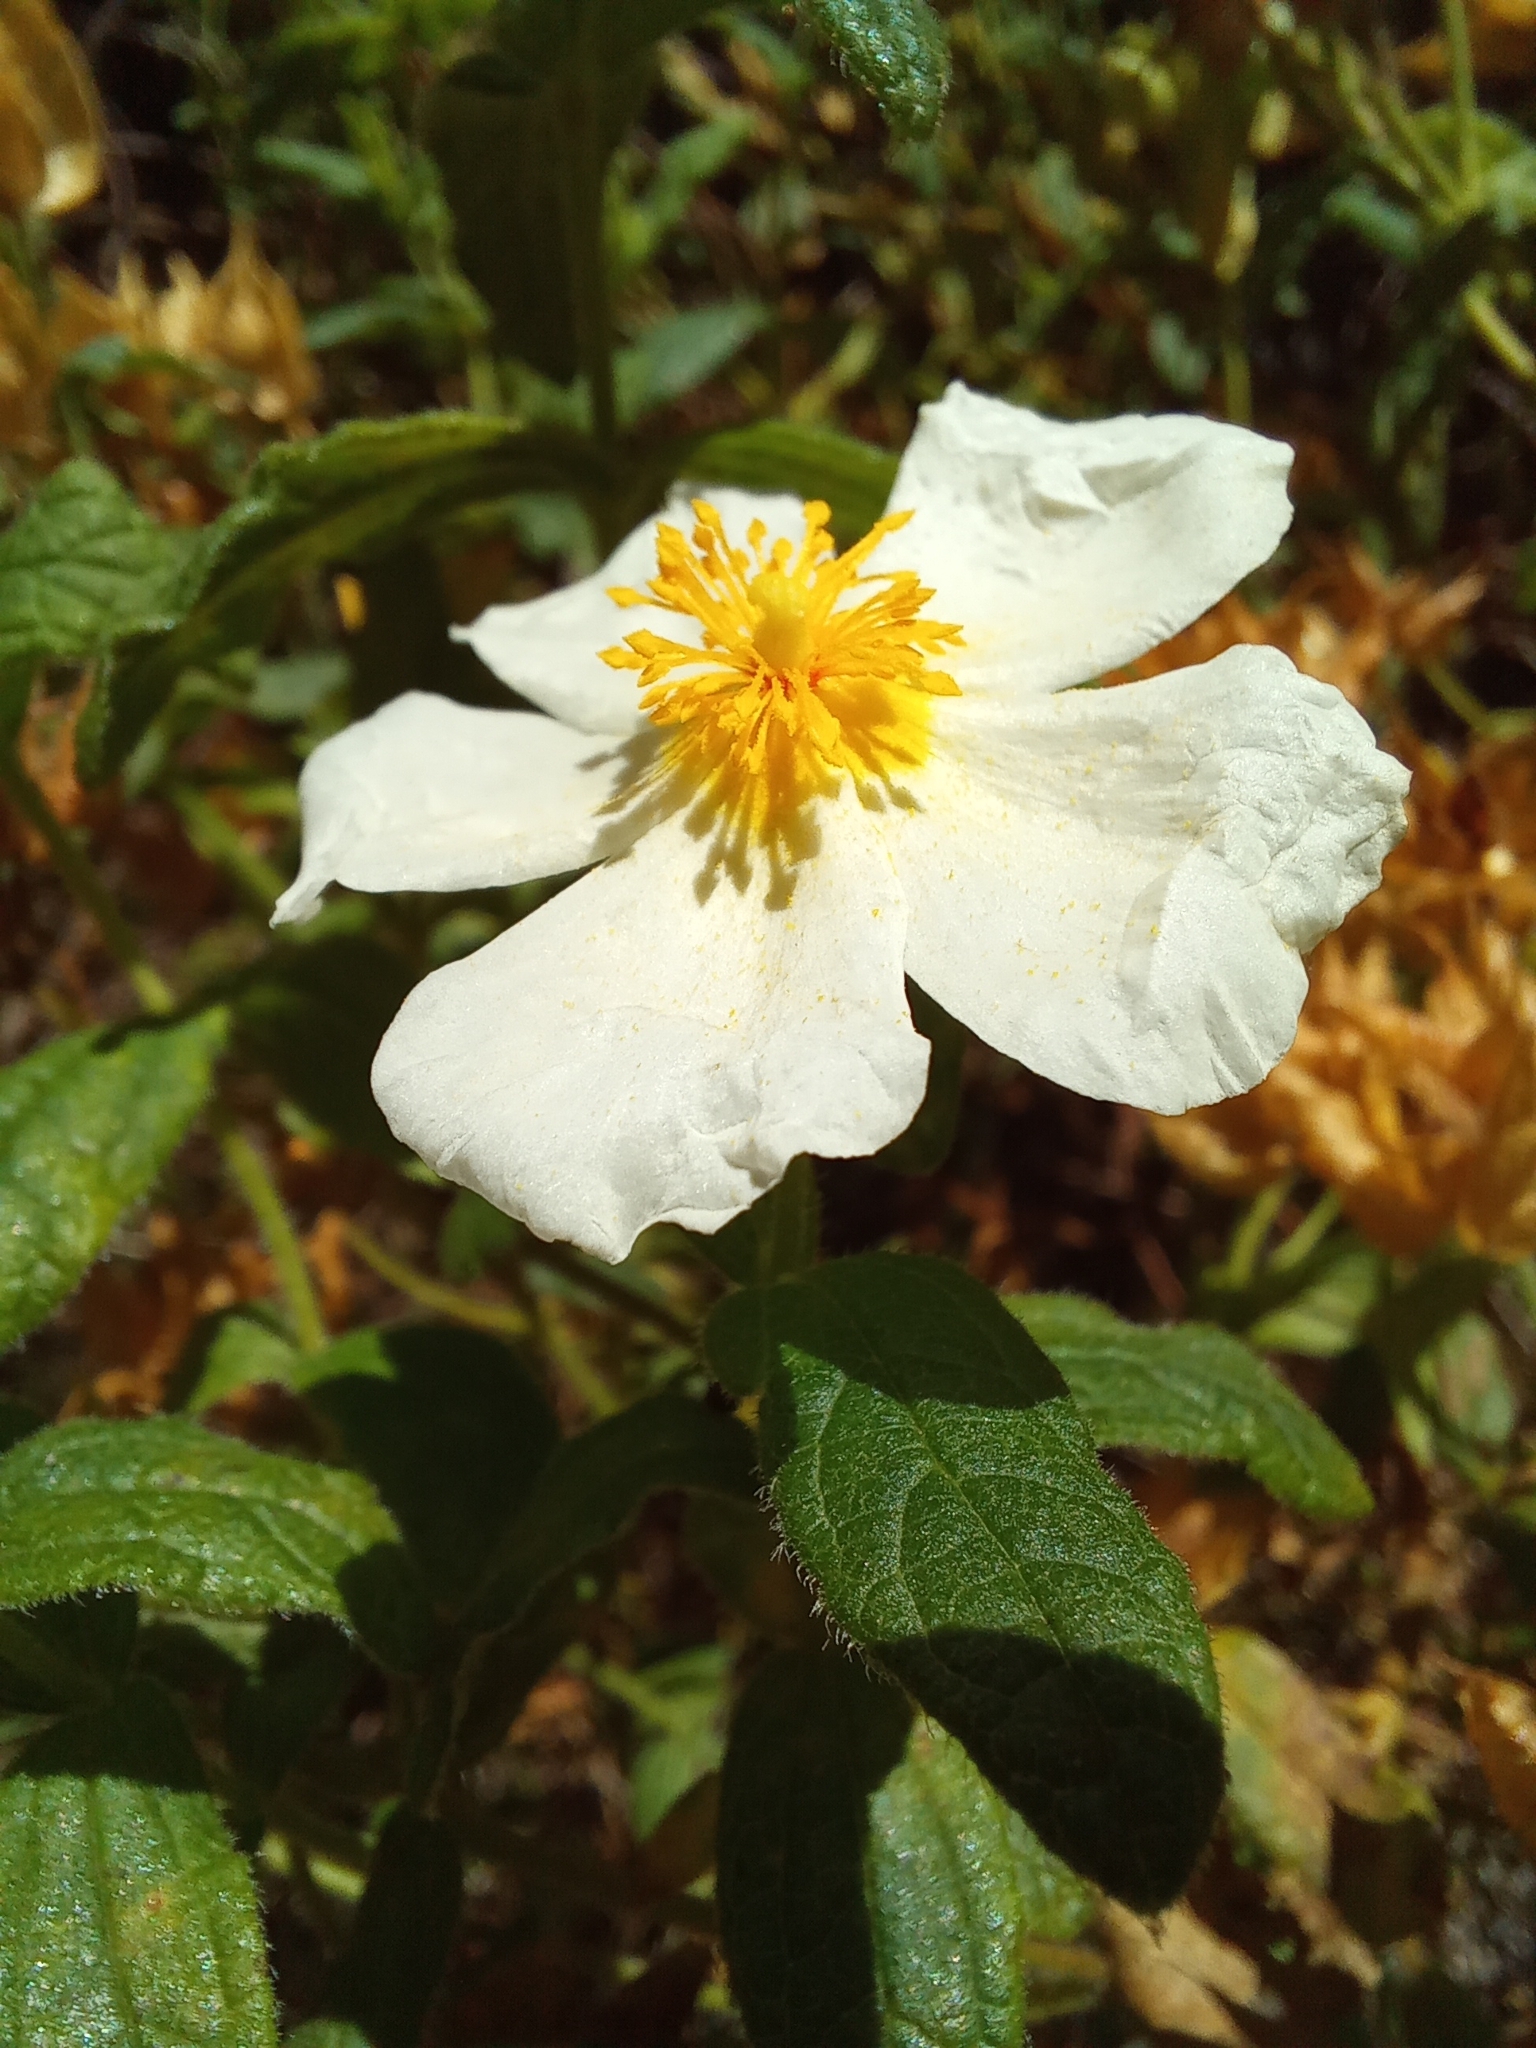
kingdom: Plantae
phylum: Tracheophyta
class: Magnoliopsida
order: Malvales
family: Cistaceae
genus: Cistus
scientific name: Cistus inflatus
